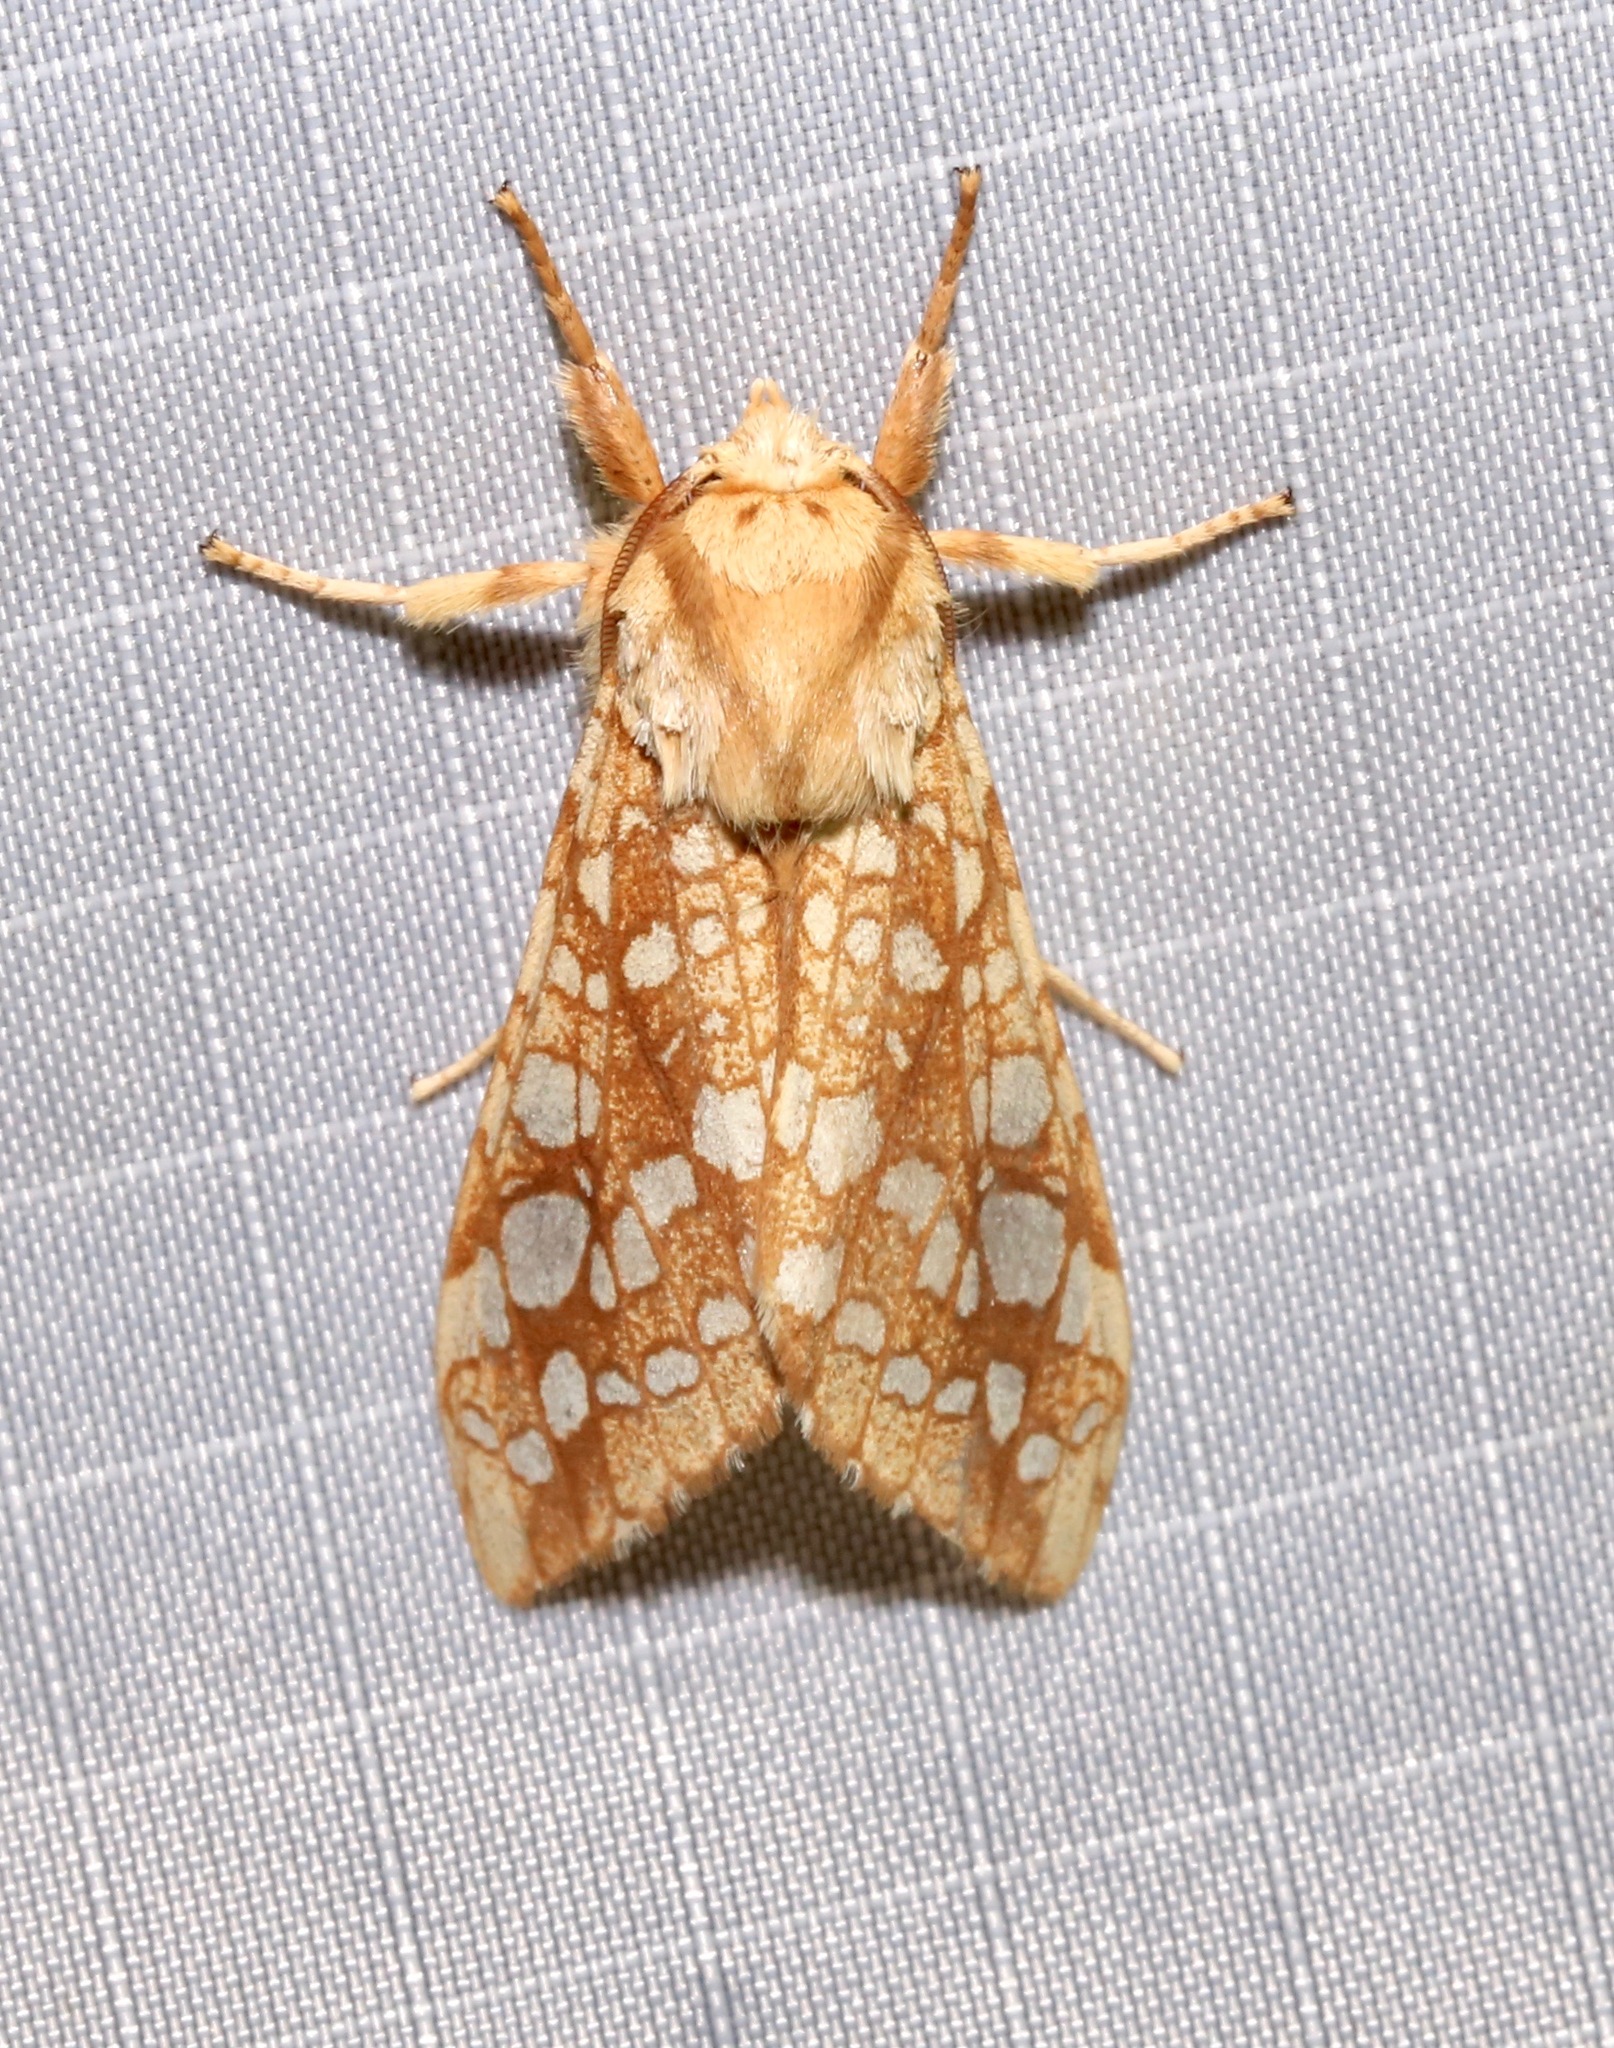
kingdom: Animalia
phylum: Arthropoda
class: Insecta
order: Lepidoptera
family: Erebidae
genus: Lophocampa
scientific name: Lophocampa caryae
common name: Hickory tussock moth
